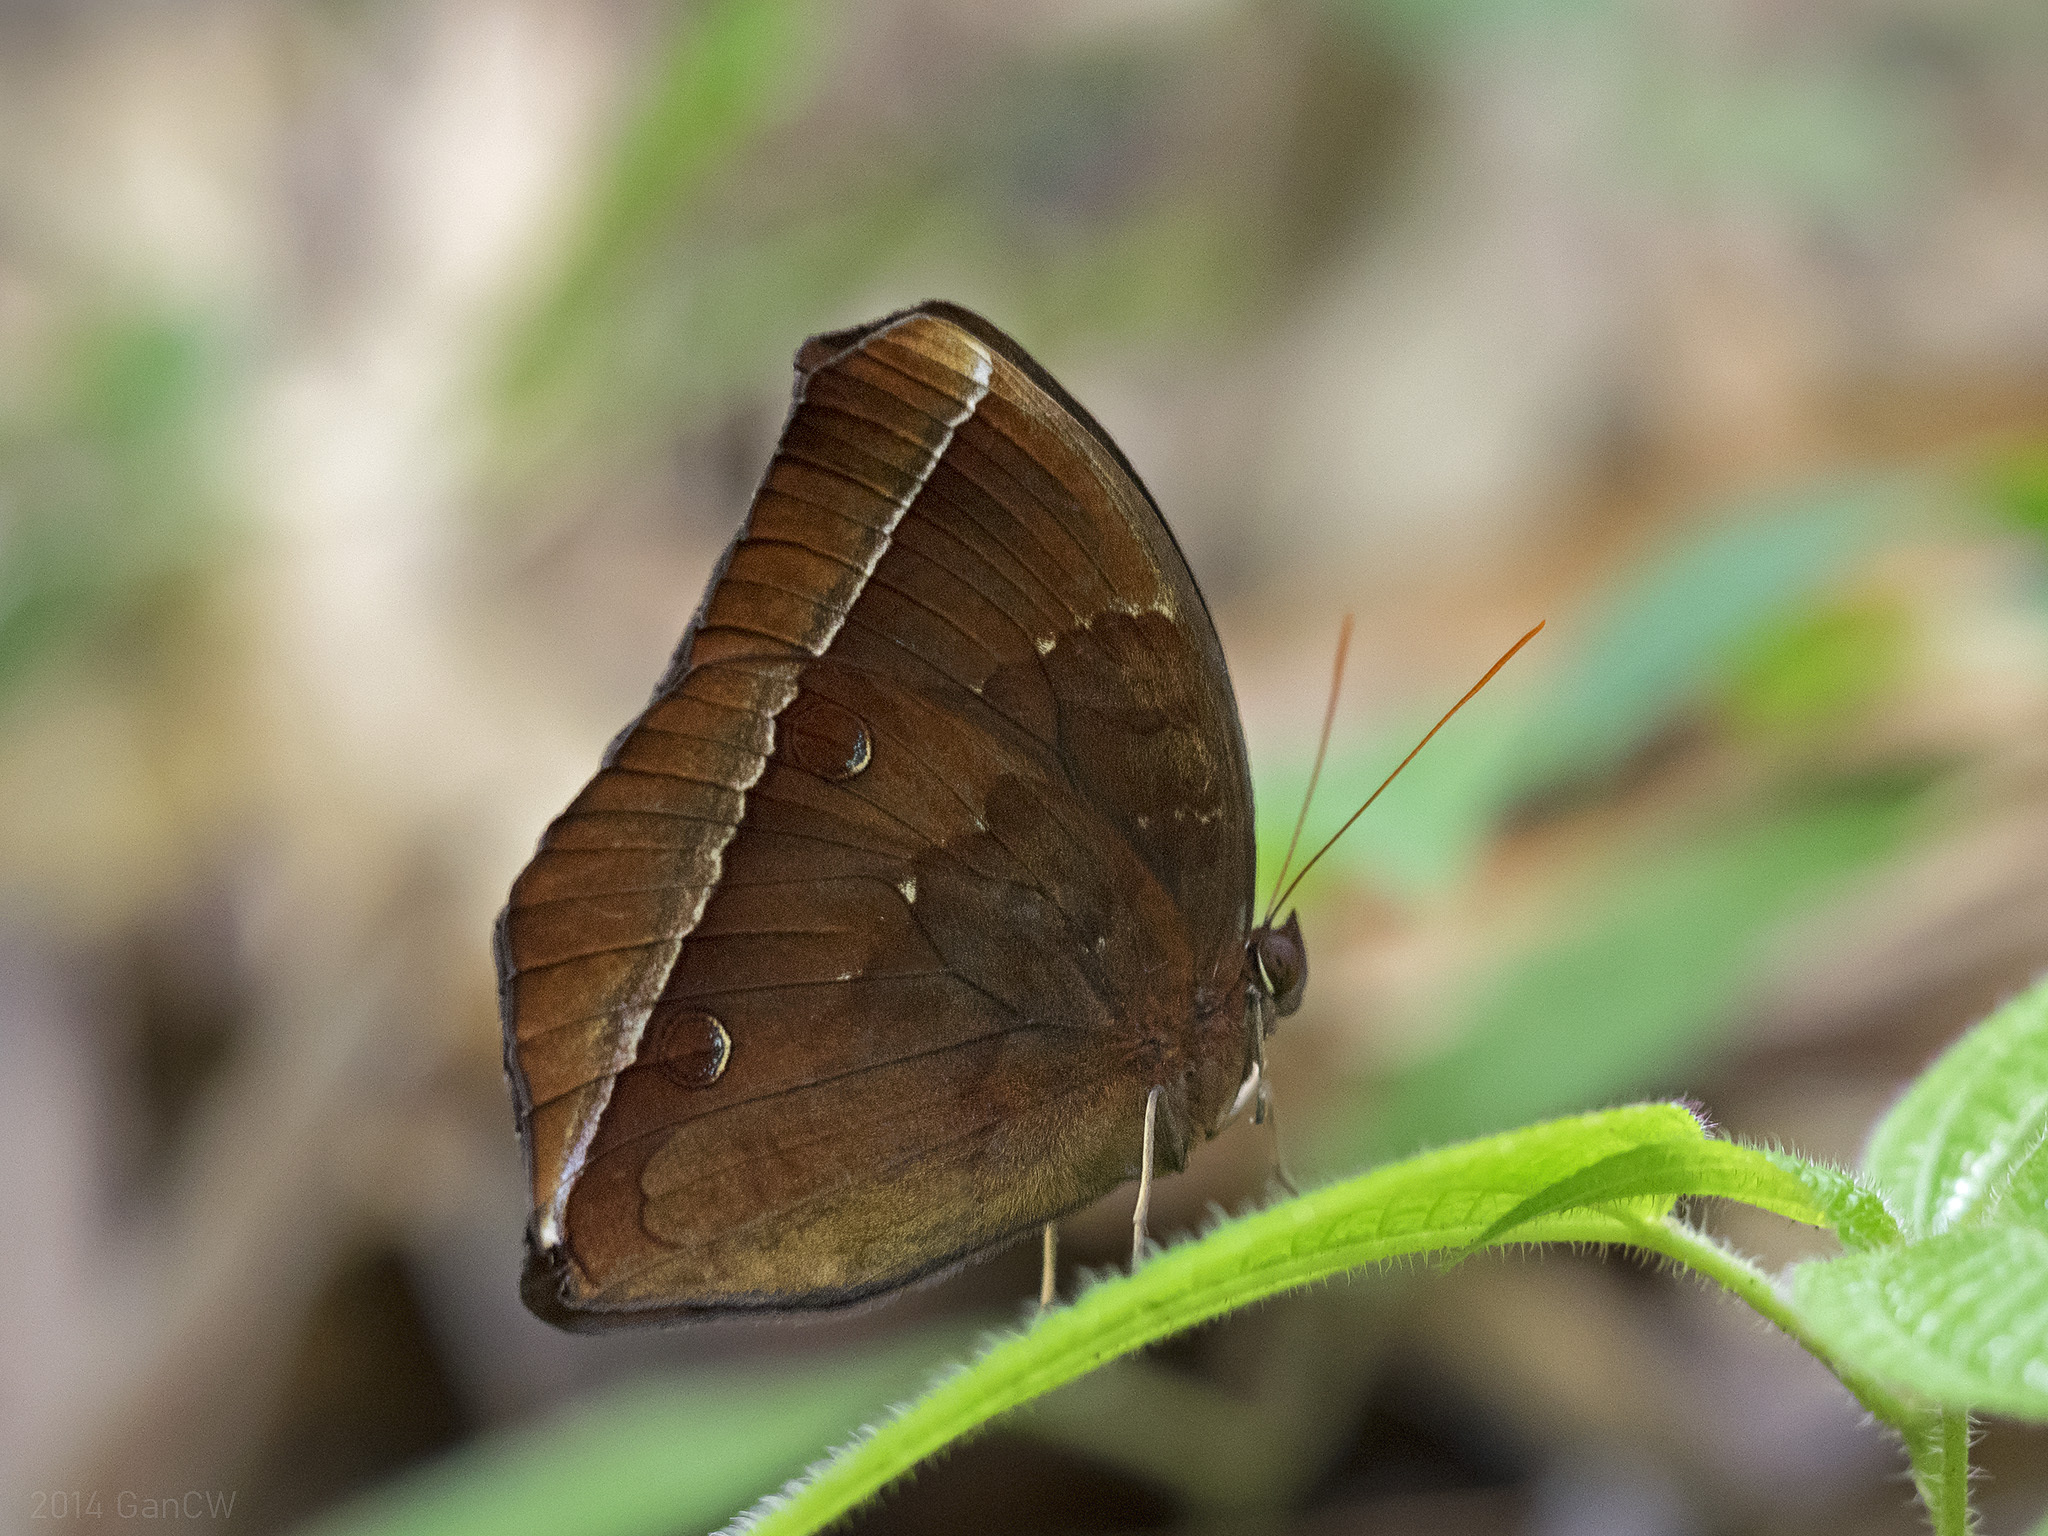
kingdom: Animalia
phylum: Arthropoda
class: Insecta
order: Lepidoptera
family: Nymphalidae
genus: Thaumantis
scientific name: Thaumantis noureddin
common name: Dark jungle glory
